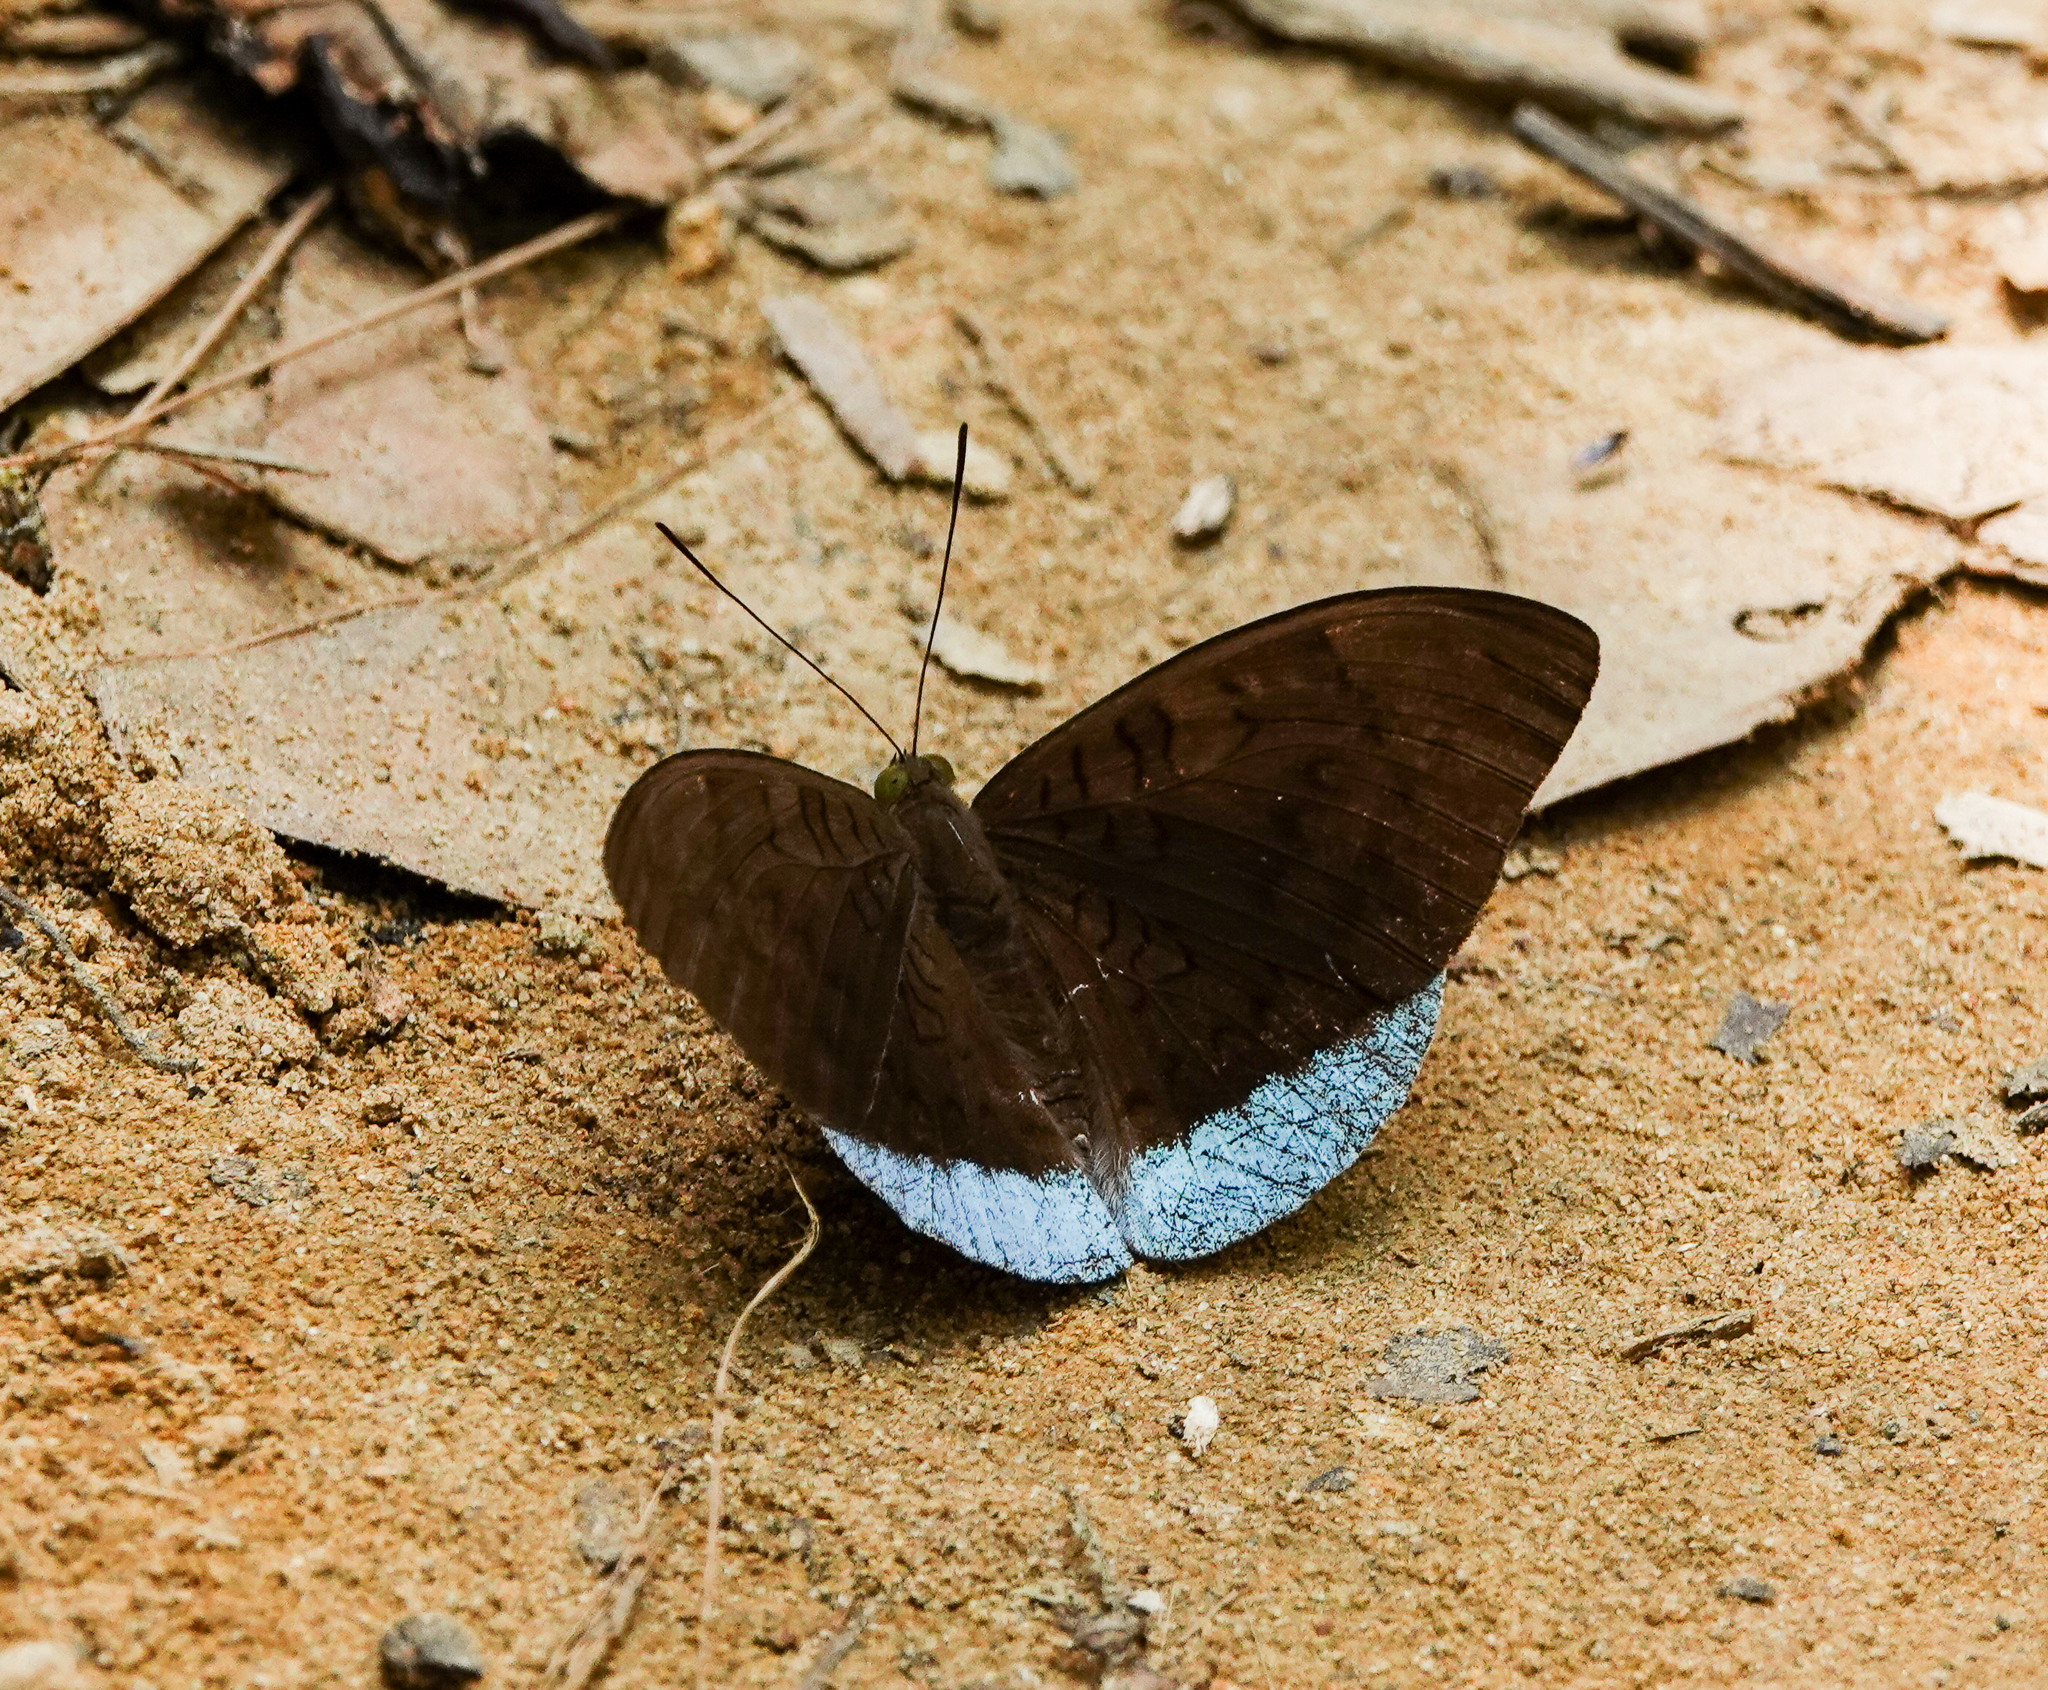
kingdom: Animalia
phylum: Arthropoda
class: Insecta
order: Lepidoptera
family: Nymphalidae
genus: Euthalia
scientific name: Euthalia telchinia
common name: Blue baron
